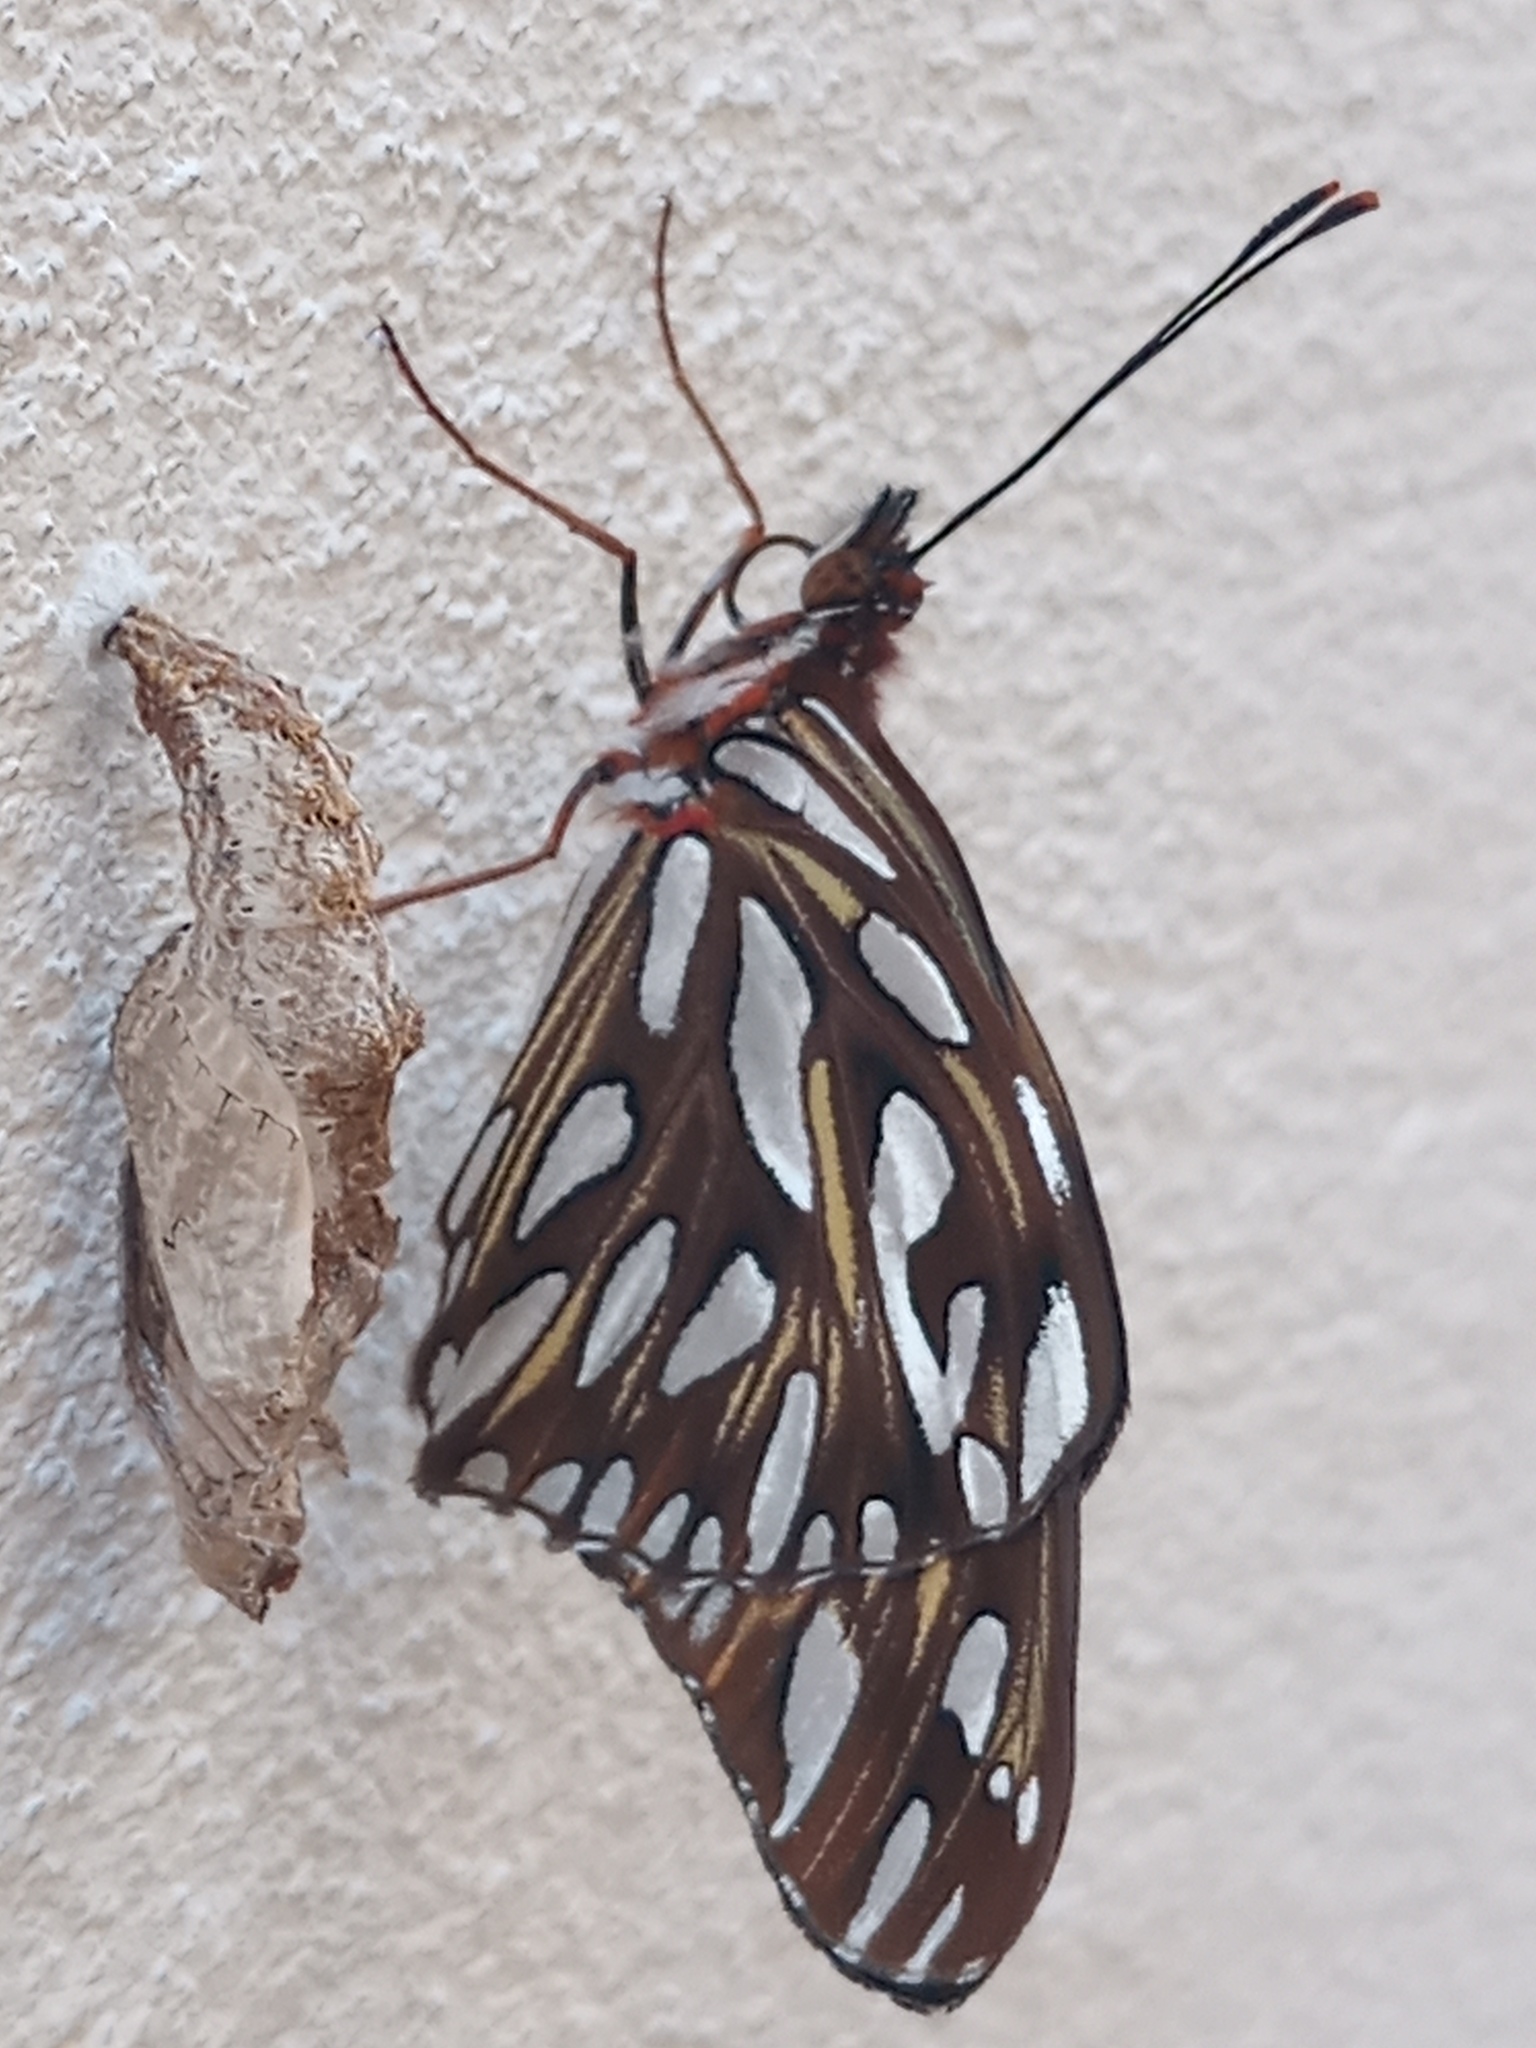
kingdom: Animalia
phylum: Arthropoda
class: Insecta
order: Lepidoptera
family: Nymphalidae
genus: Dione
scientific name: Dione vanillae
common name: Gulf fritillary
